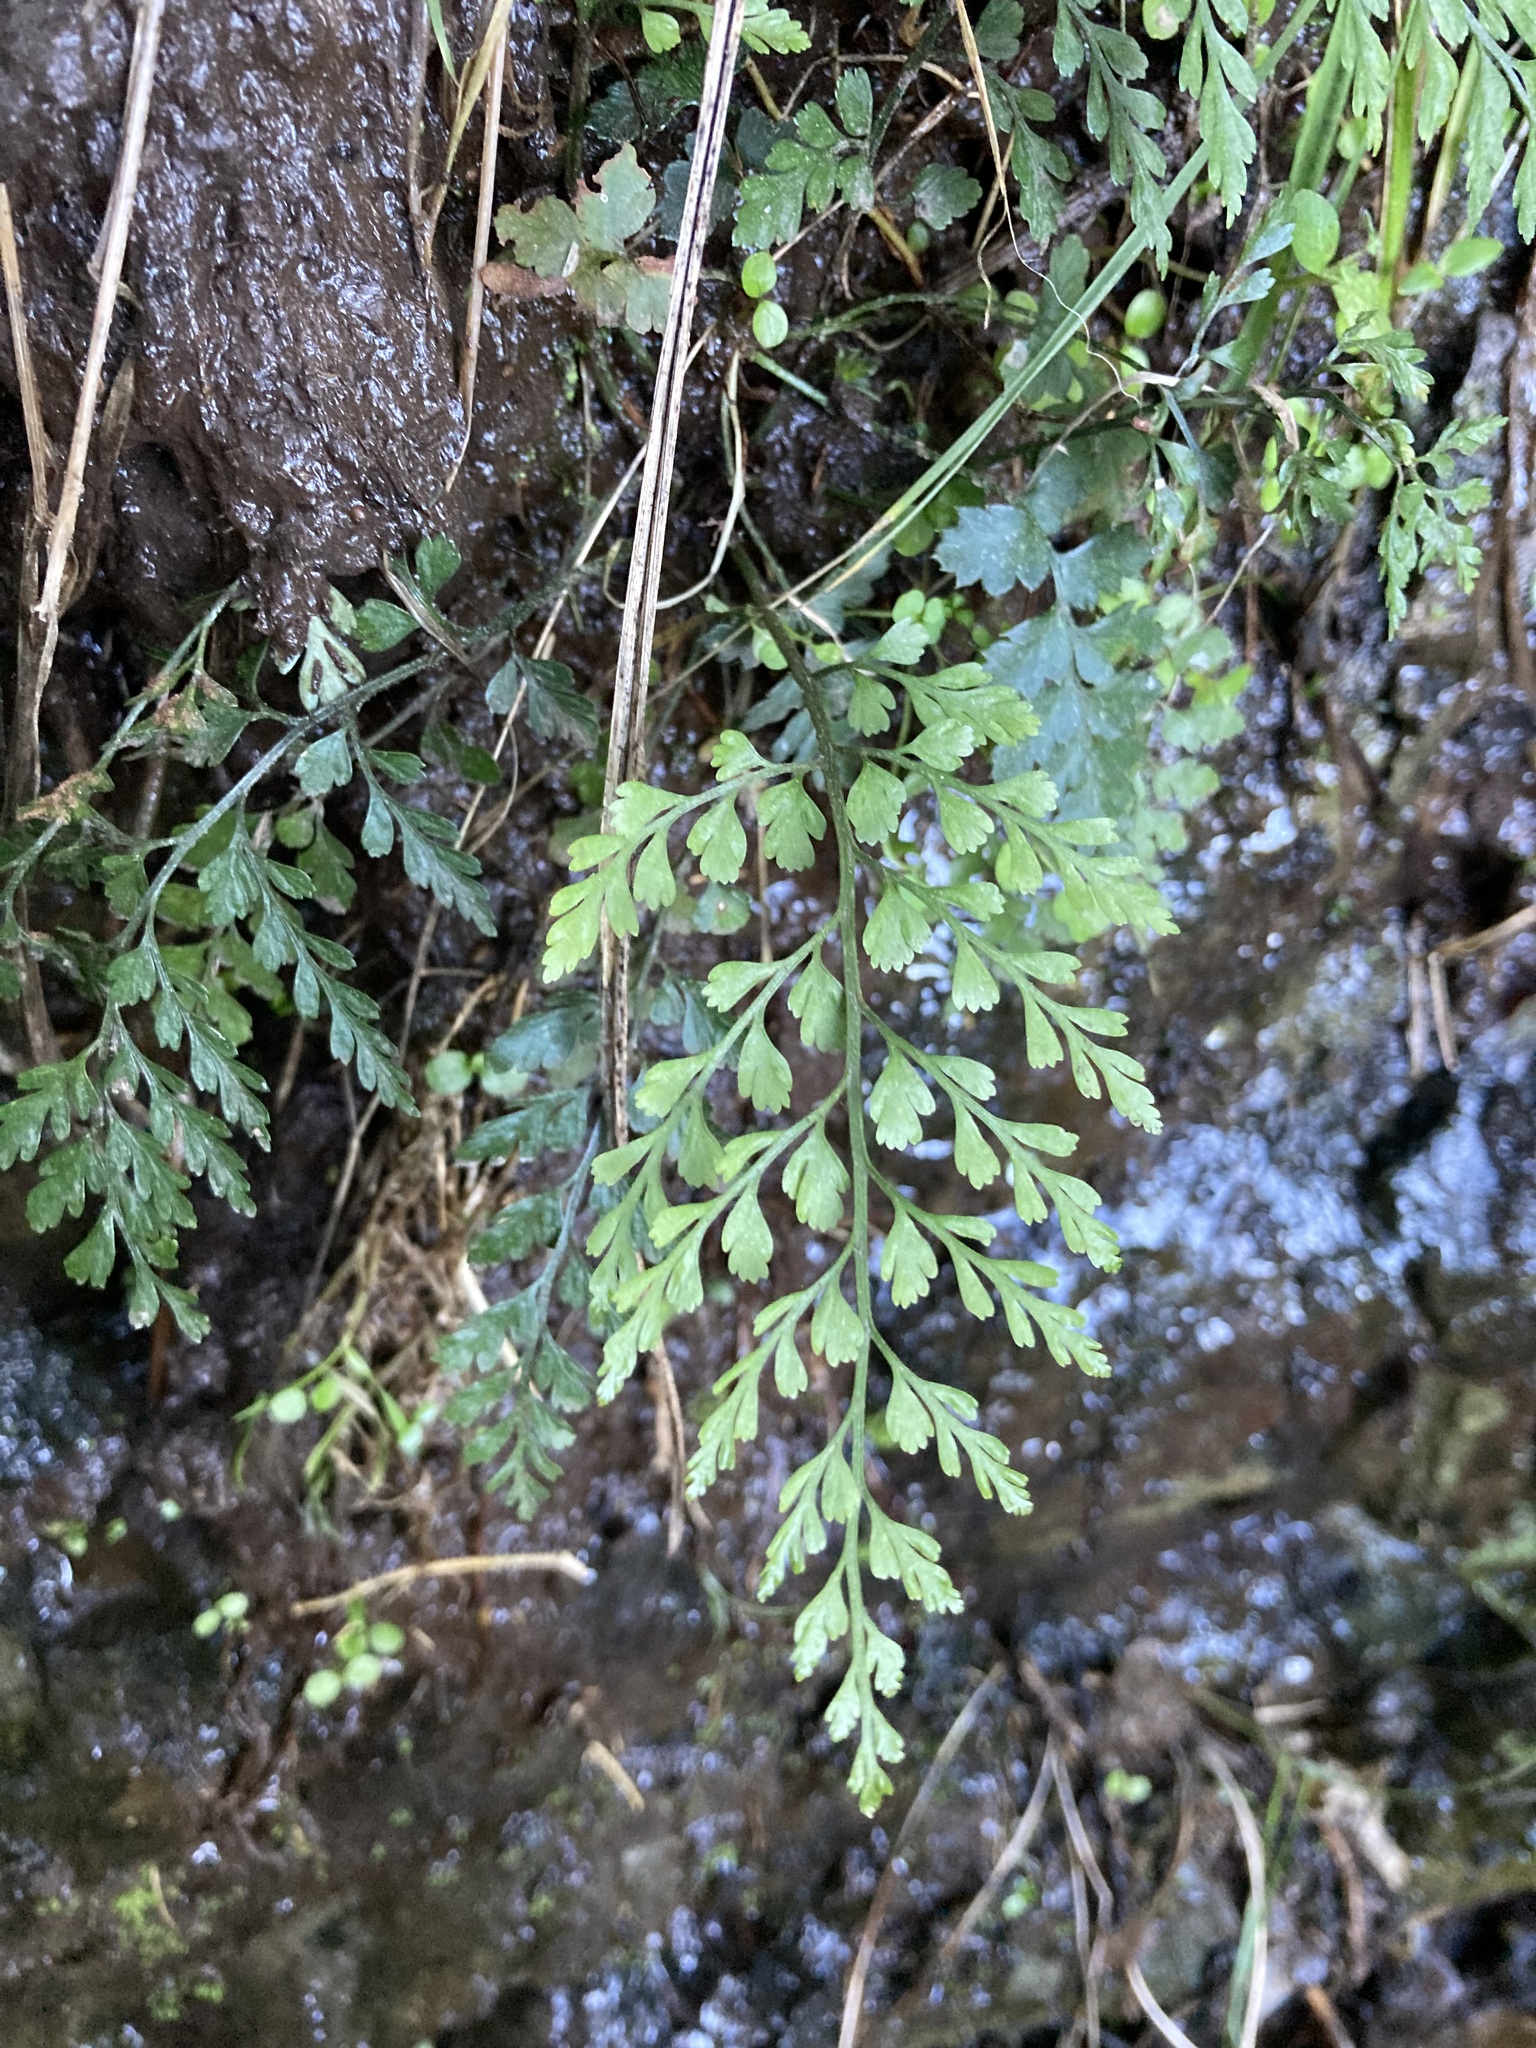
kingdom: Plantae
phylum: Tracheophyta
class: Polypodiopsida
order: Polypodiales
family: Aspleniaceae
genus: Asplenium
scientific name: Asplenium hookerianum
